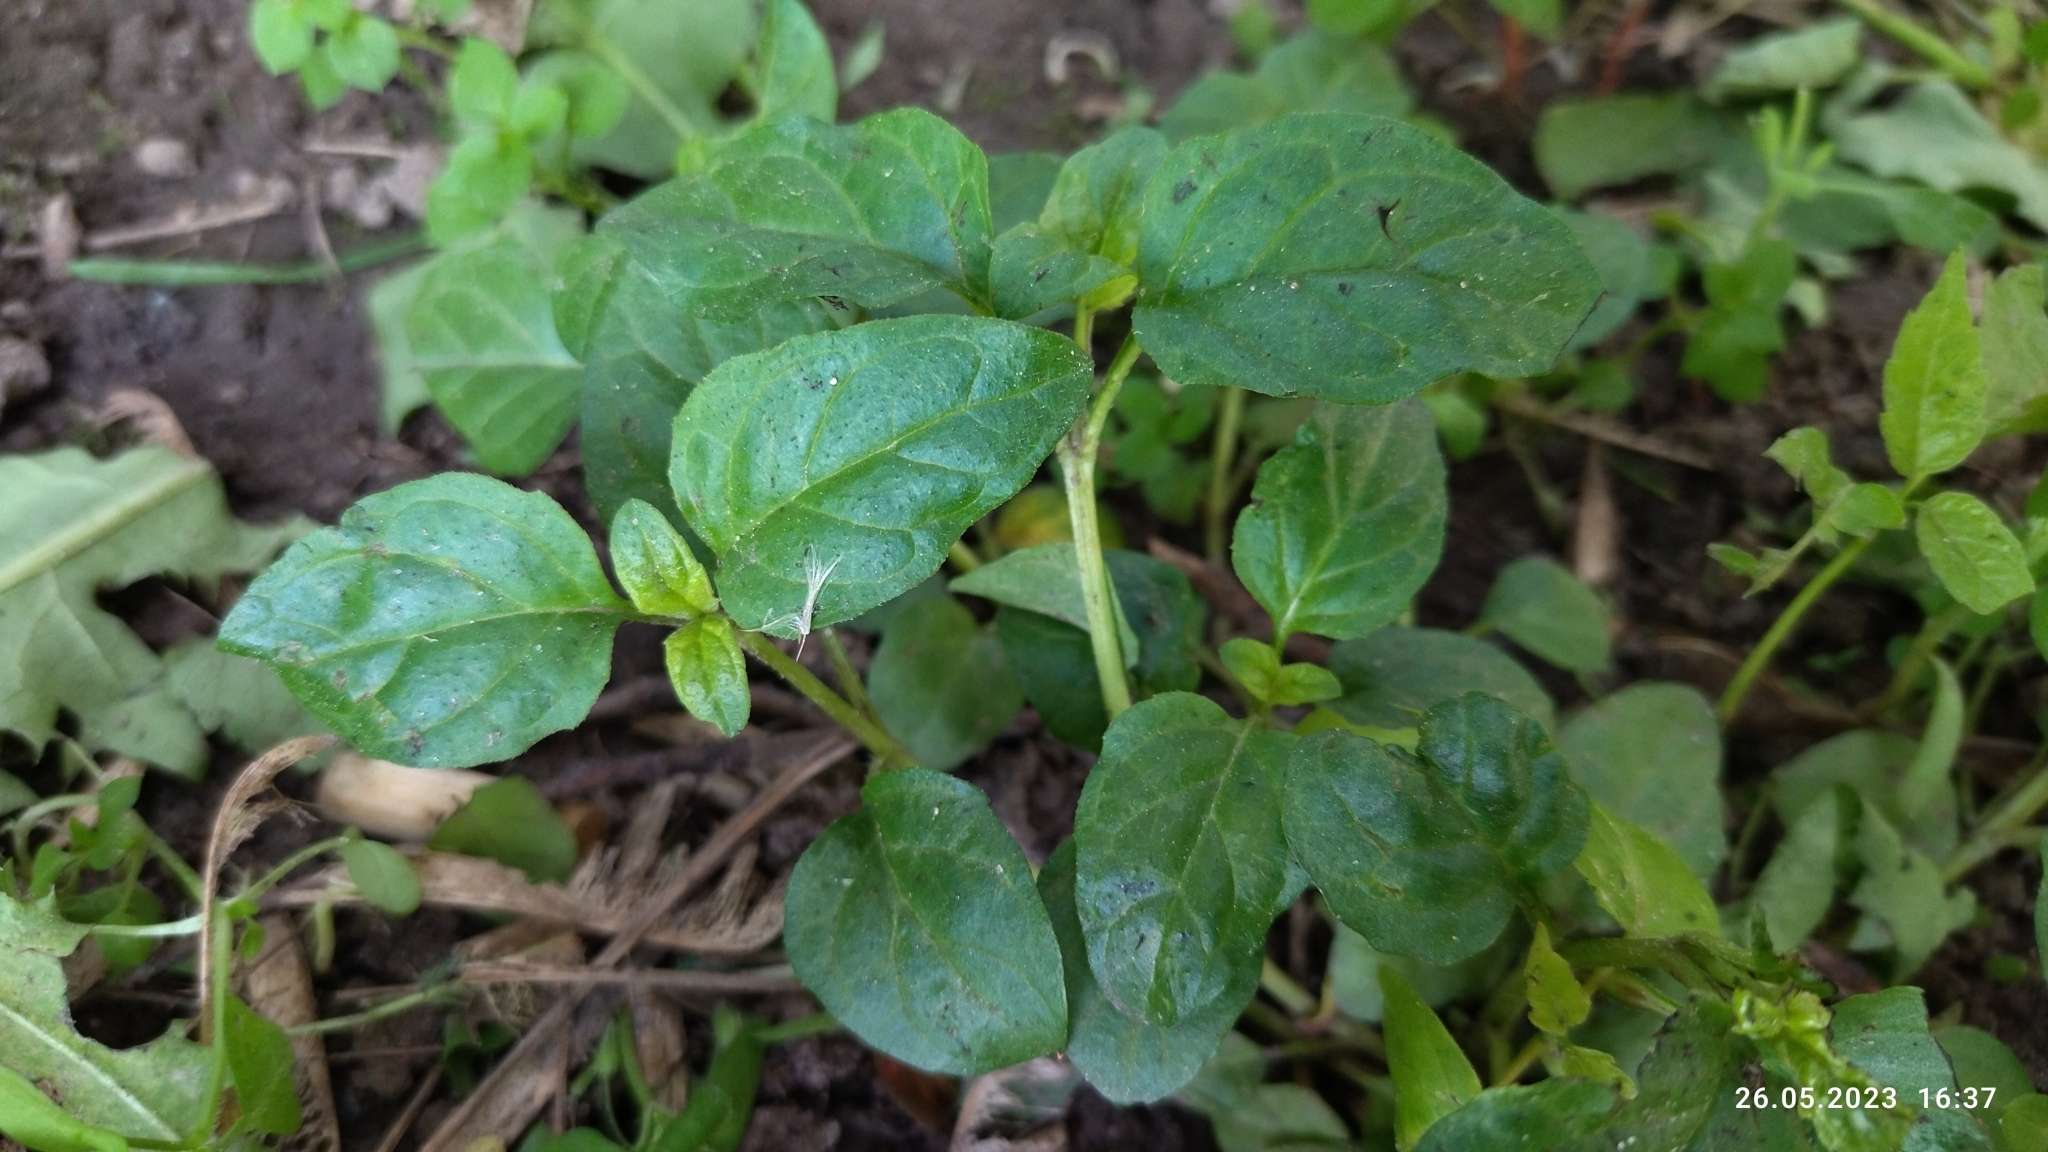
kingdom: Plantae
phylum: Tracheophyta
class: Magnoliopsida
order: Lamiales
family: Lamiaceae
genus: Prunella
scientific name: Prunella vulgaris
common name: Heal-all
